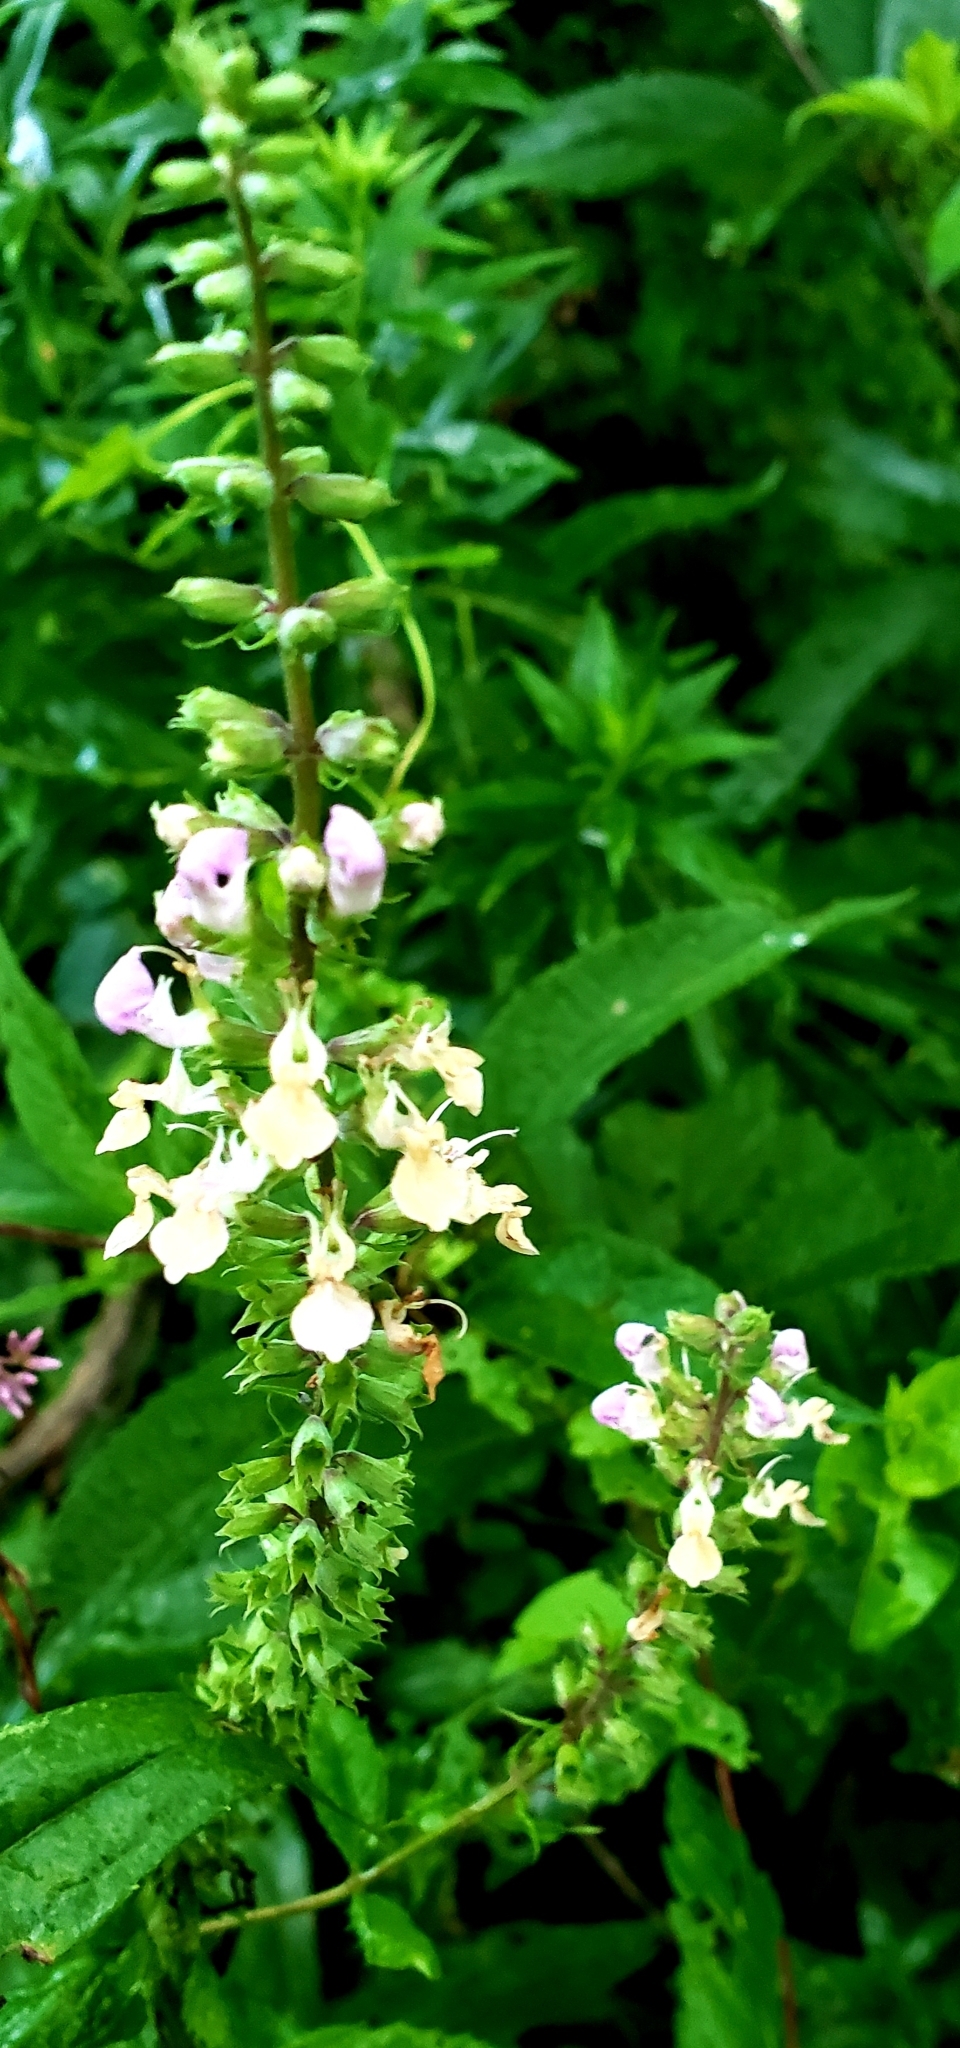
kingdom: Plantae
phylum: Tracheophyta
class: Magnoliopsida
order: Lamiales
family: Lamiaceae
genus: Teucrium
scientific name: Teucrium canadense
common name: American germander
